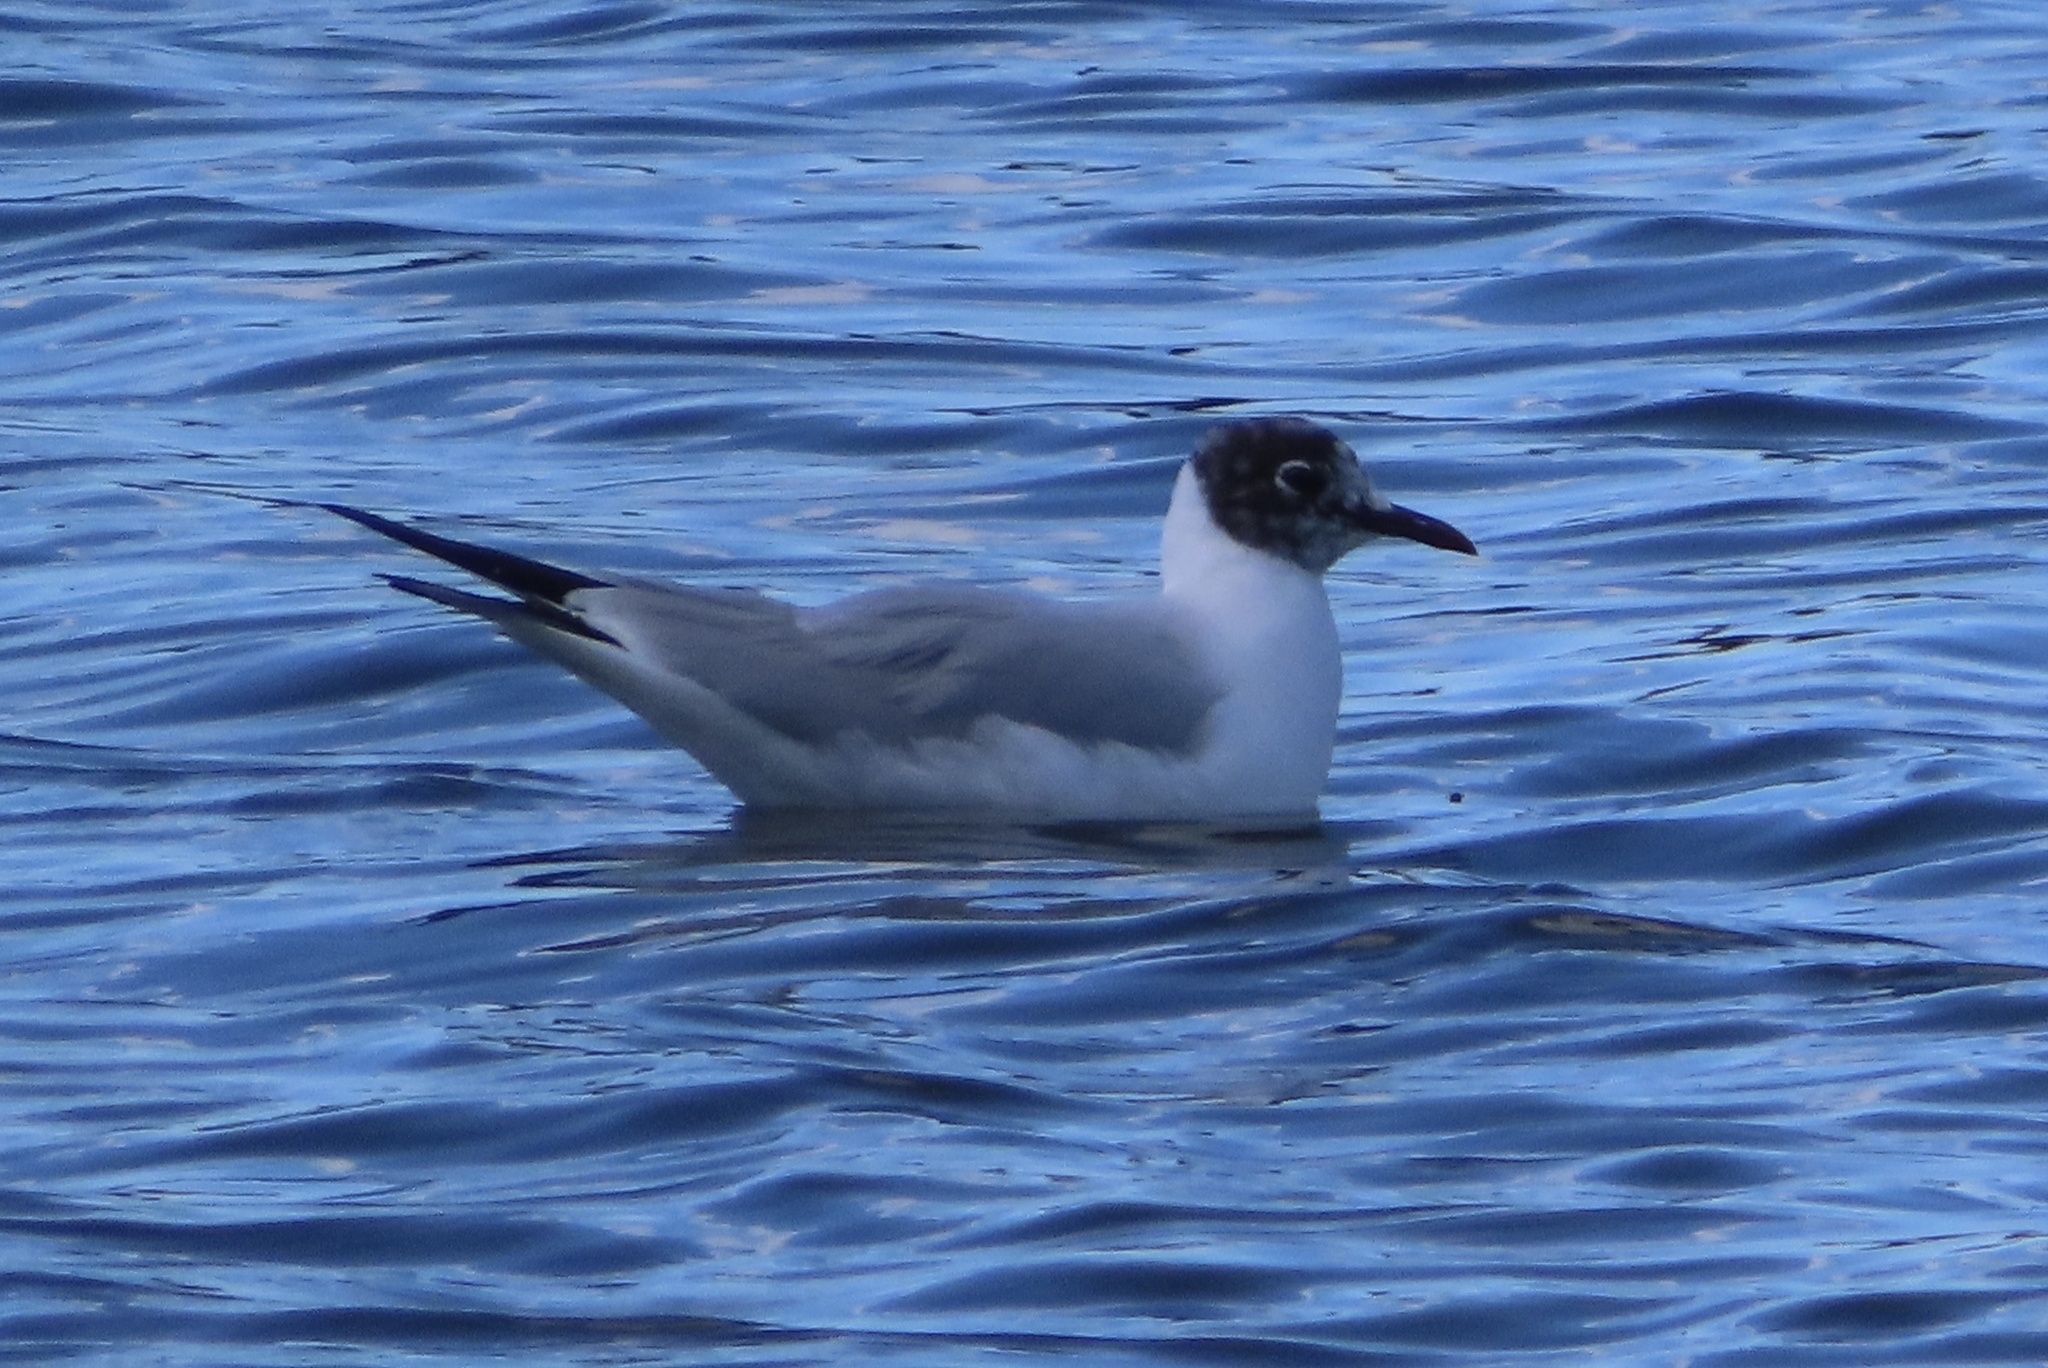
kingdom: Animalia
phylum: Chordata
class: Aves
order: Charadriiformes
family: Laridae
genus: Chroicocephalus
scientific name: Chroicocephalus ridibundus
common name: Black-headed gull
